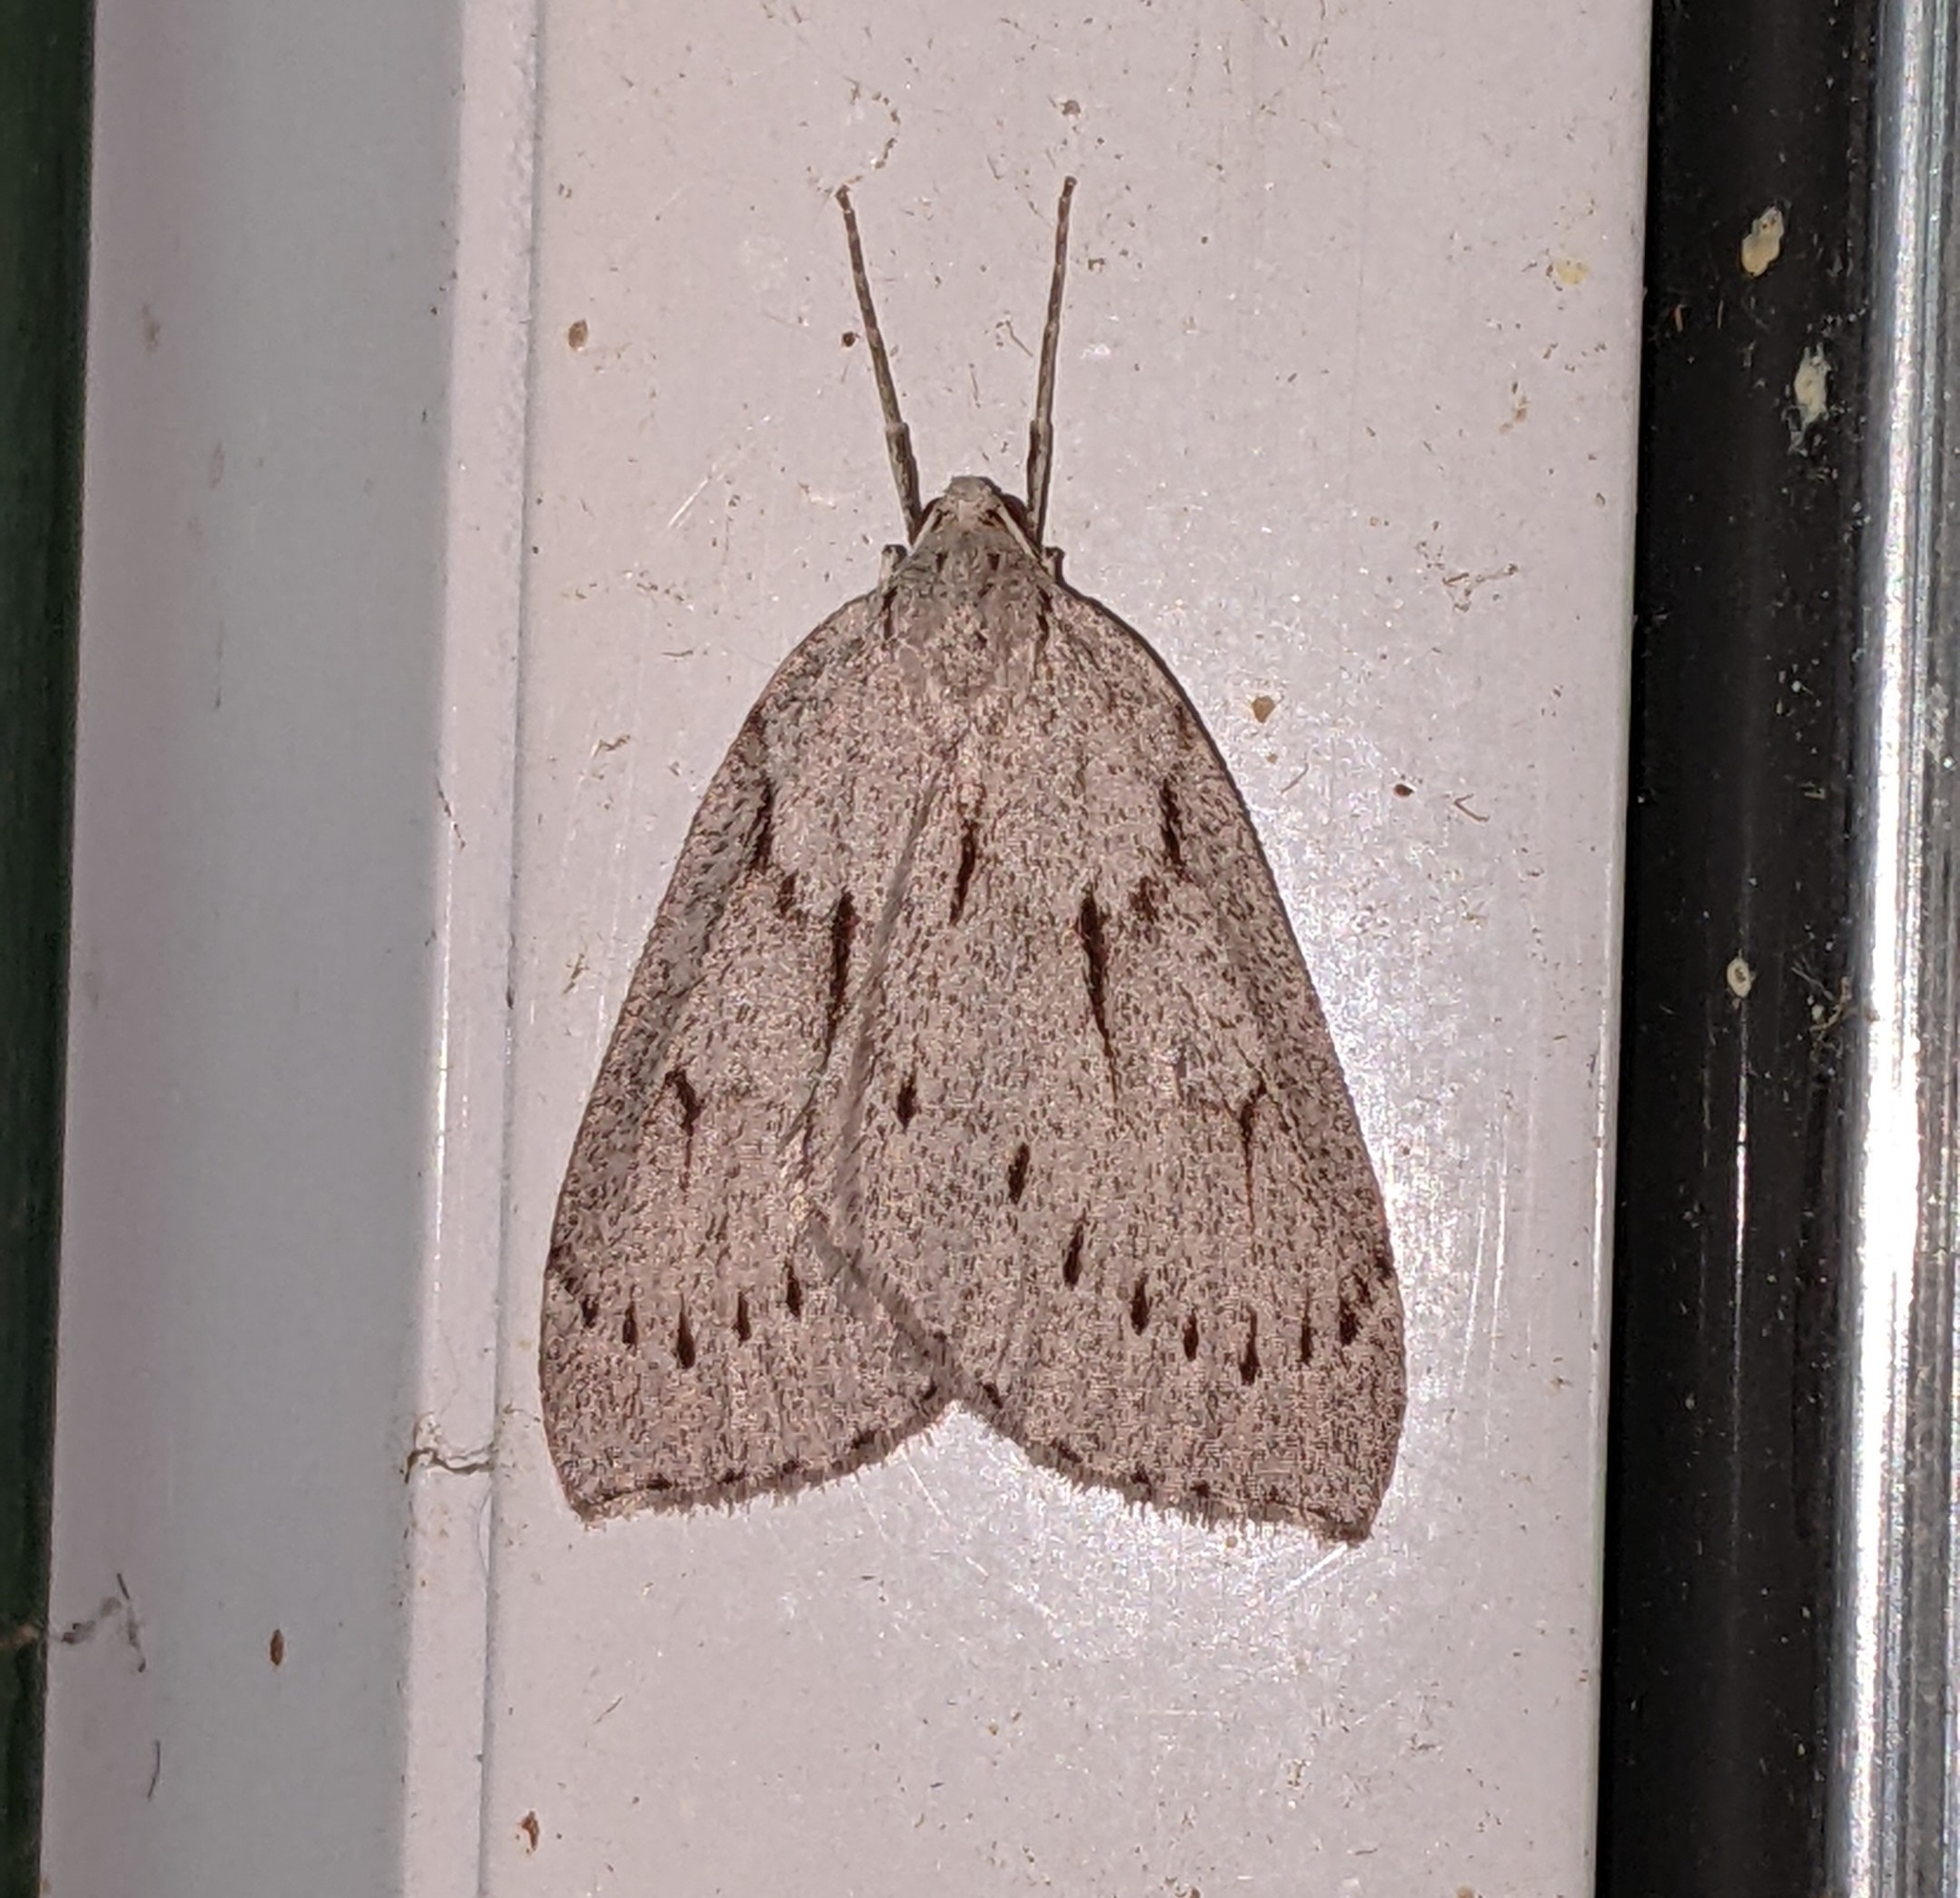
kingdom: Animalia
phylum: Arthropoda
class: Insecta
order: Lepidoptera
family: Geometridae
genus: Philedia
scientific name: Philedia punctomacularia
